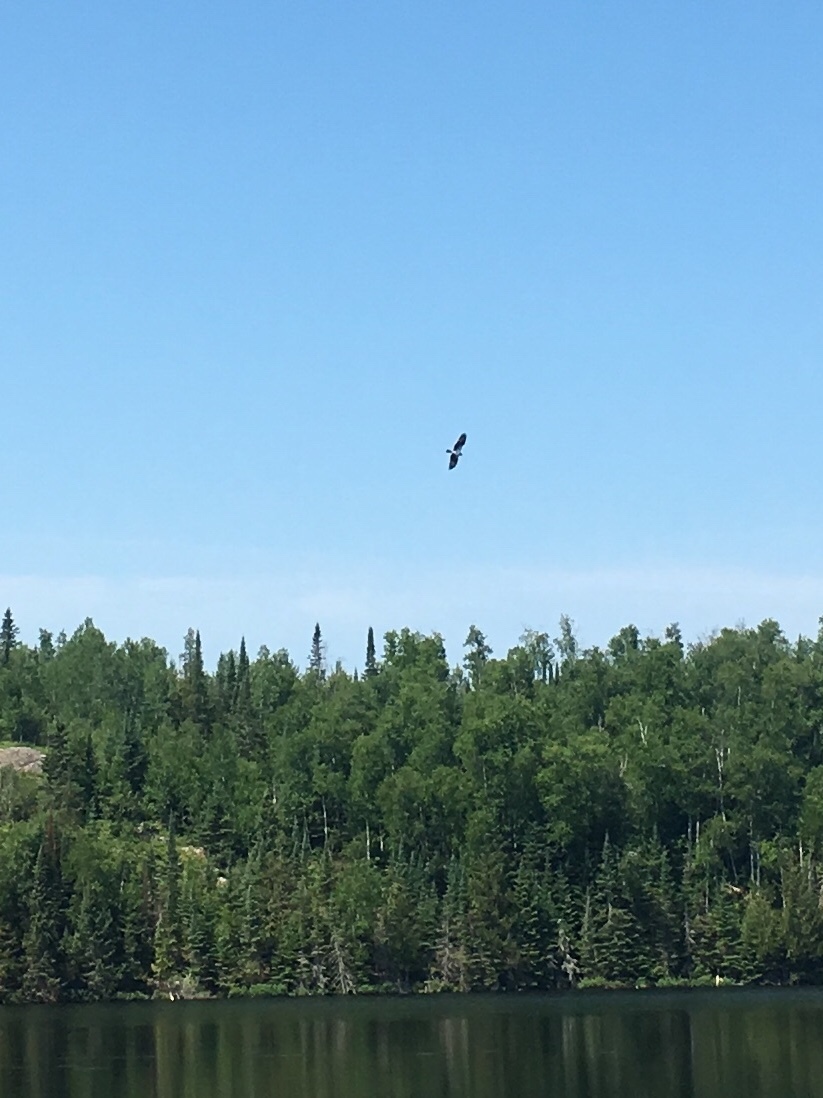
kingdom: Animalia
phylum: Chordata
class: Aves
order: Accipitriformes
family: Pandionidae
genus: Pandion
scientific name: Pandion haliaetus
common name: Osprey
